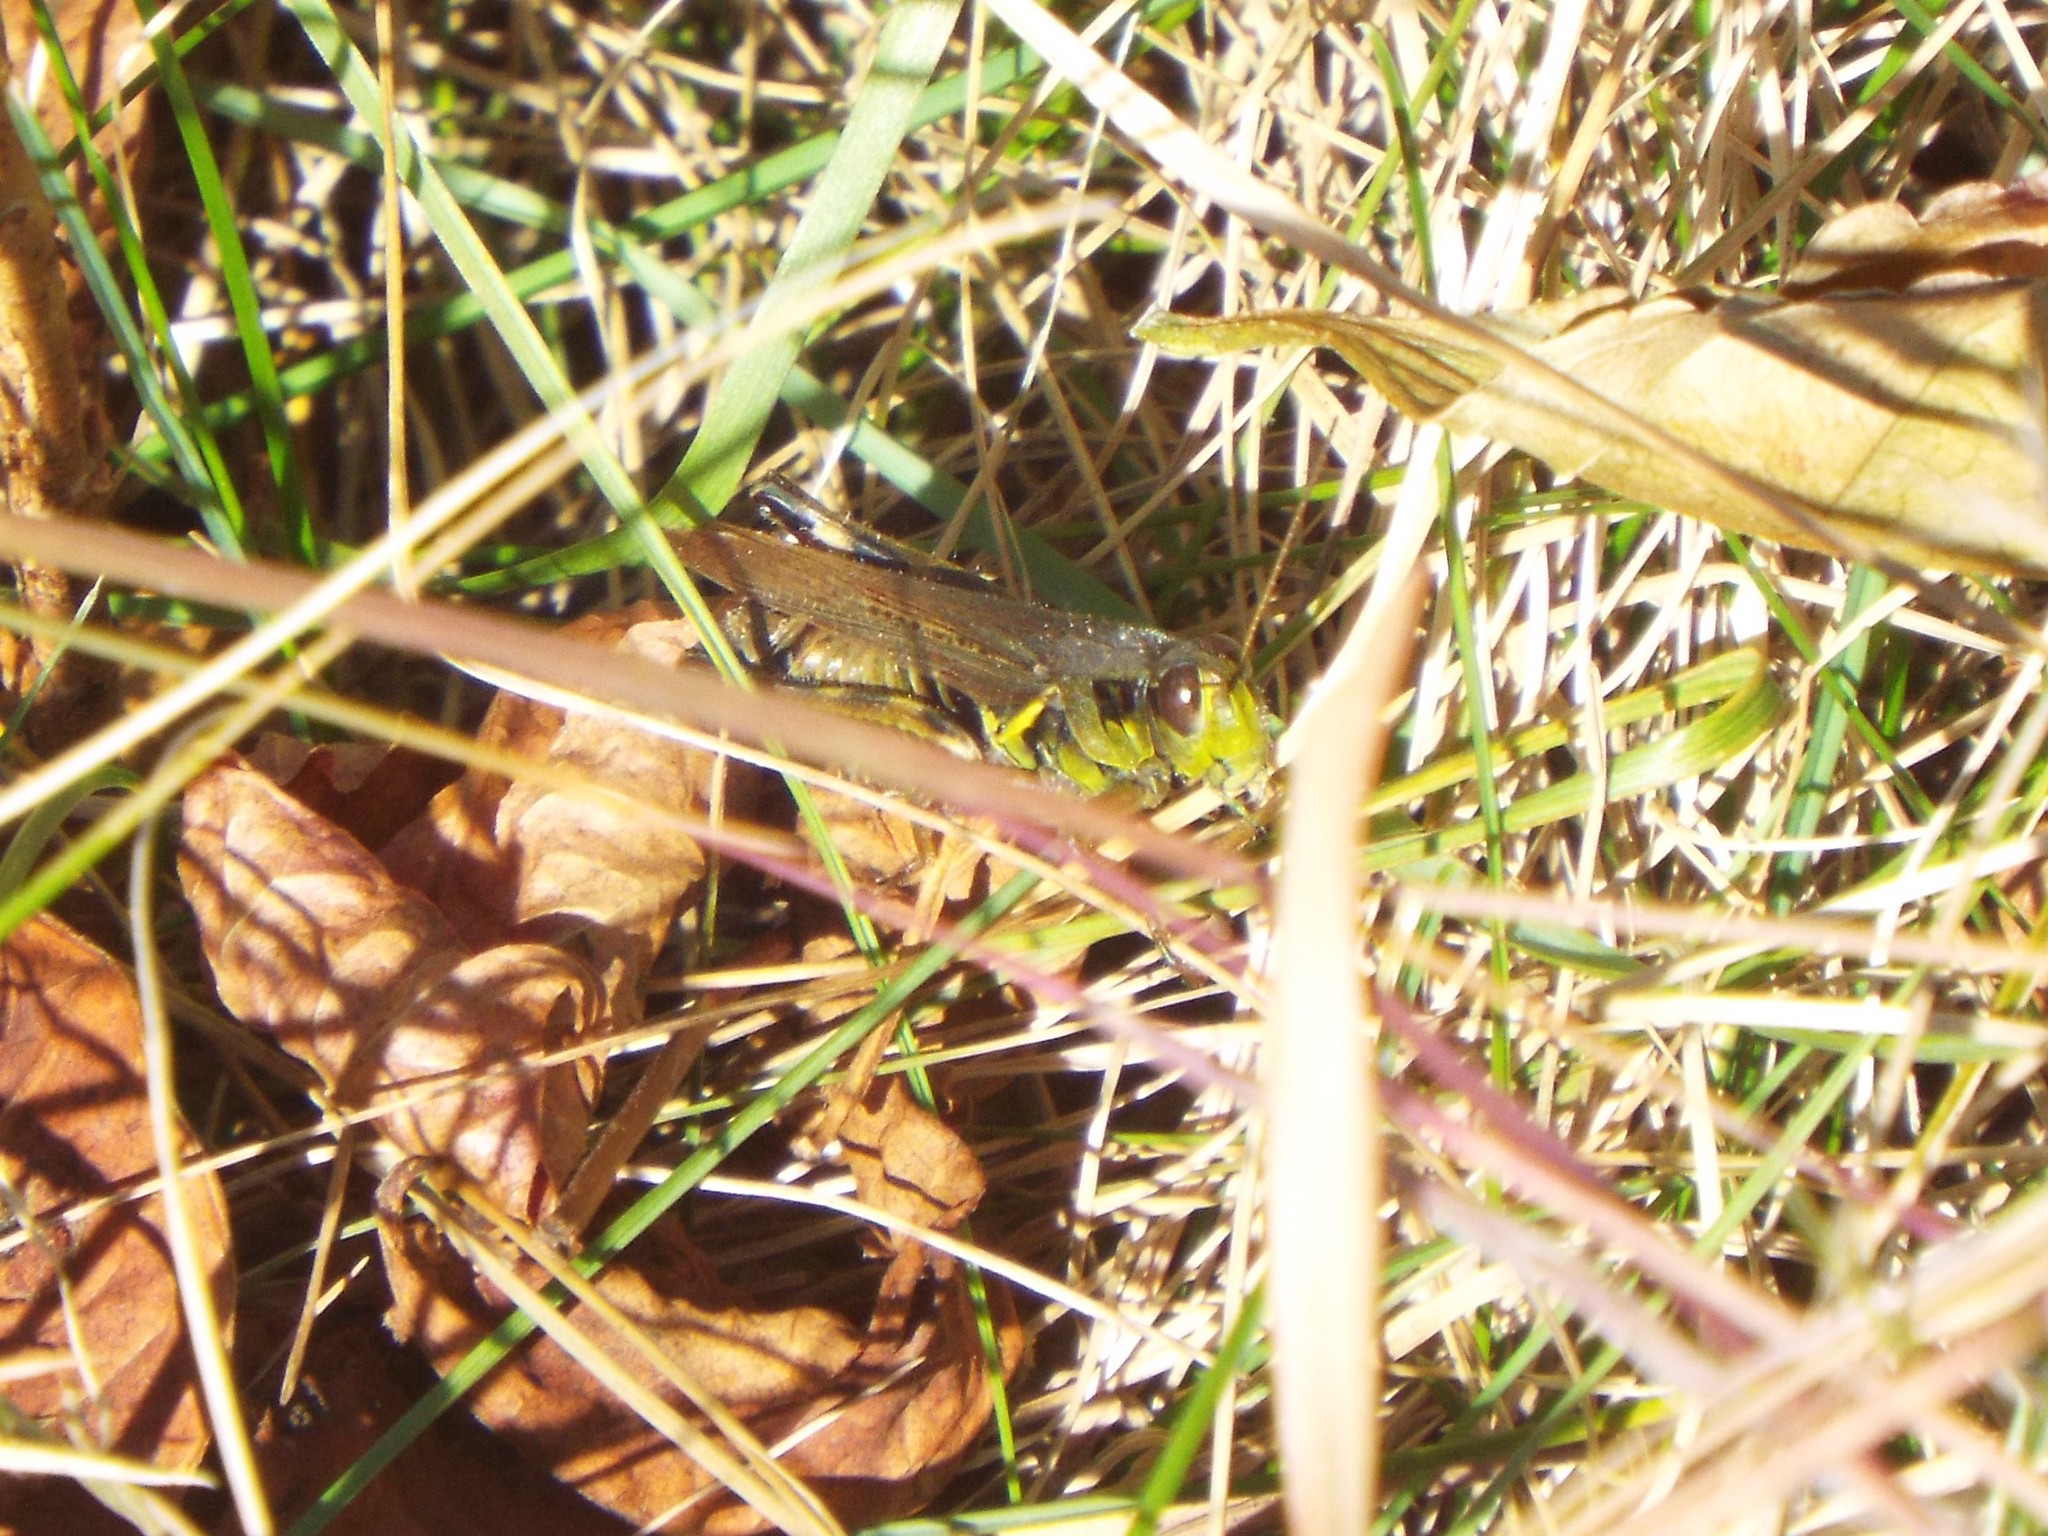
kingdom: Animalia
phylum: Arthropoda
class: Insecta
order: Orthoptera
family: Acrididae
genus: Melanoplus
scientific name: Melanoplus femurrubrum
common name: Red-legged grasshopper
